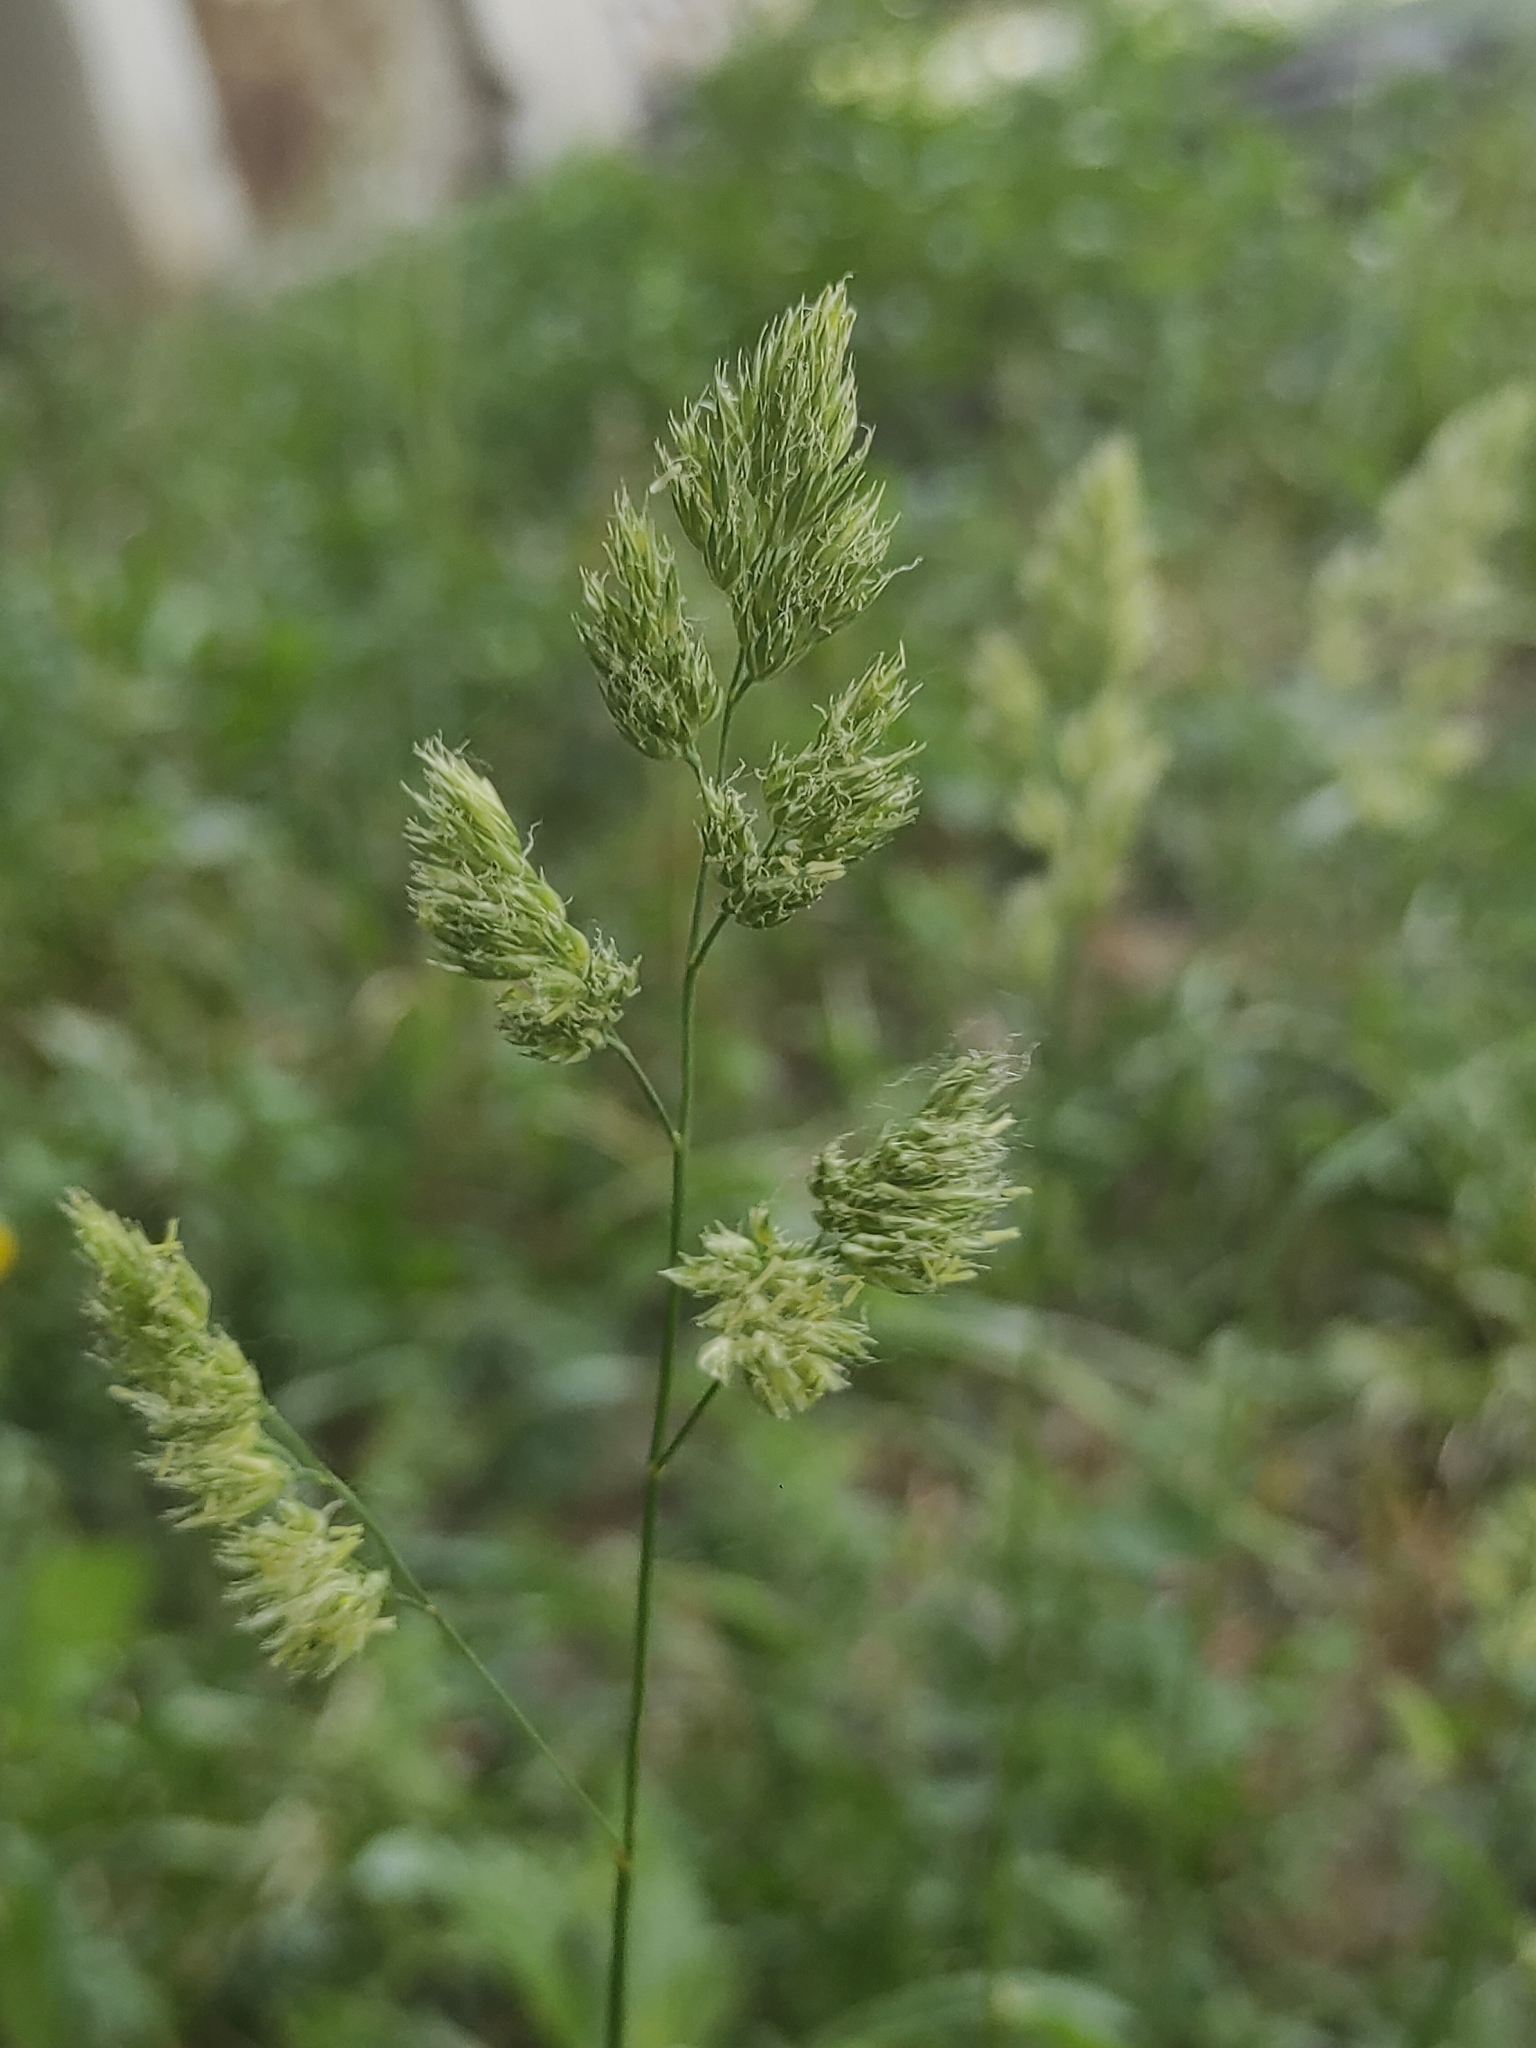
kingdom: Plantae
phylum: Tracheophyta
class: Liliopsida
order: Poales
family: Poaceae
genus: Dactylis
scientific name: Dactylis glomerata
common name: Orchardgrass
